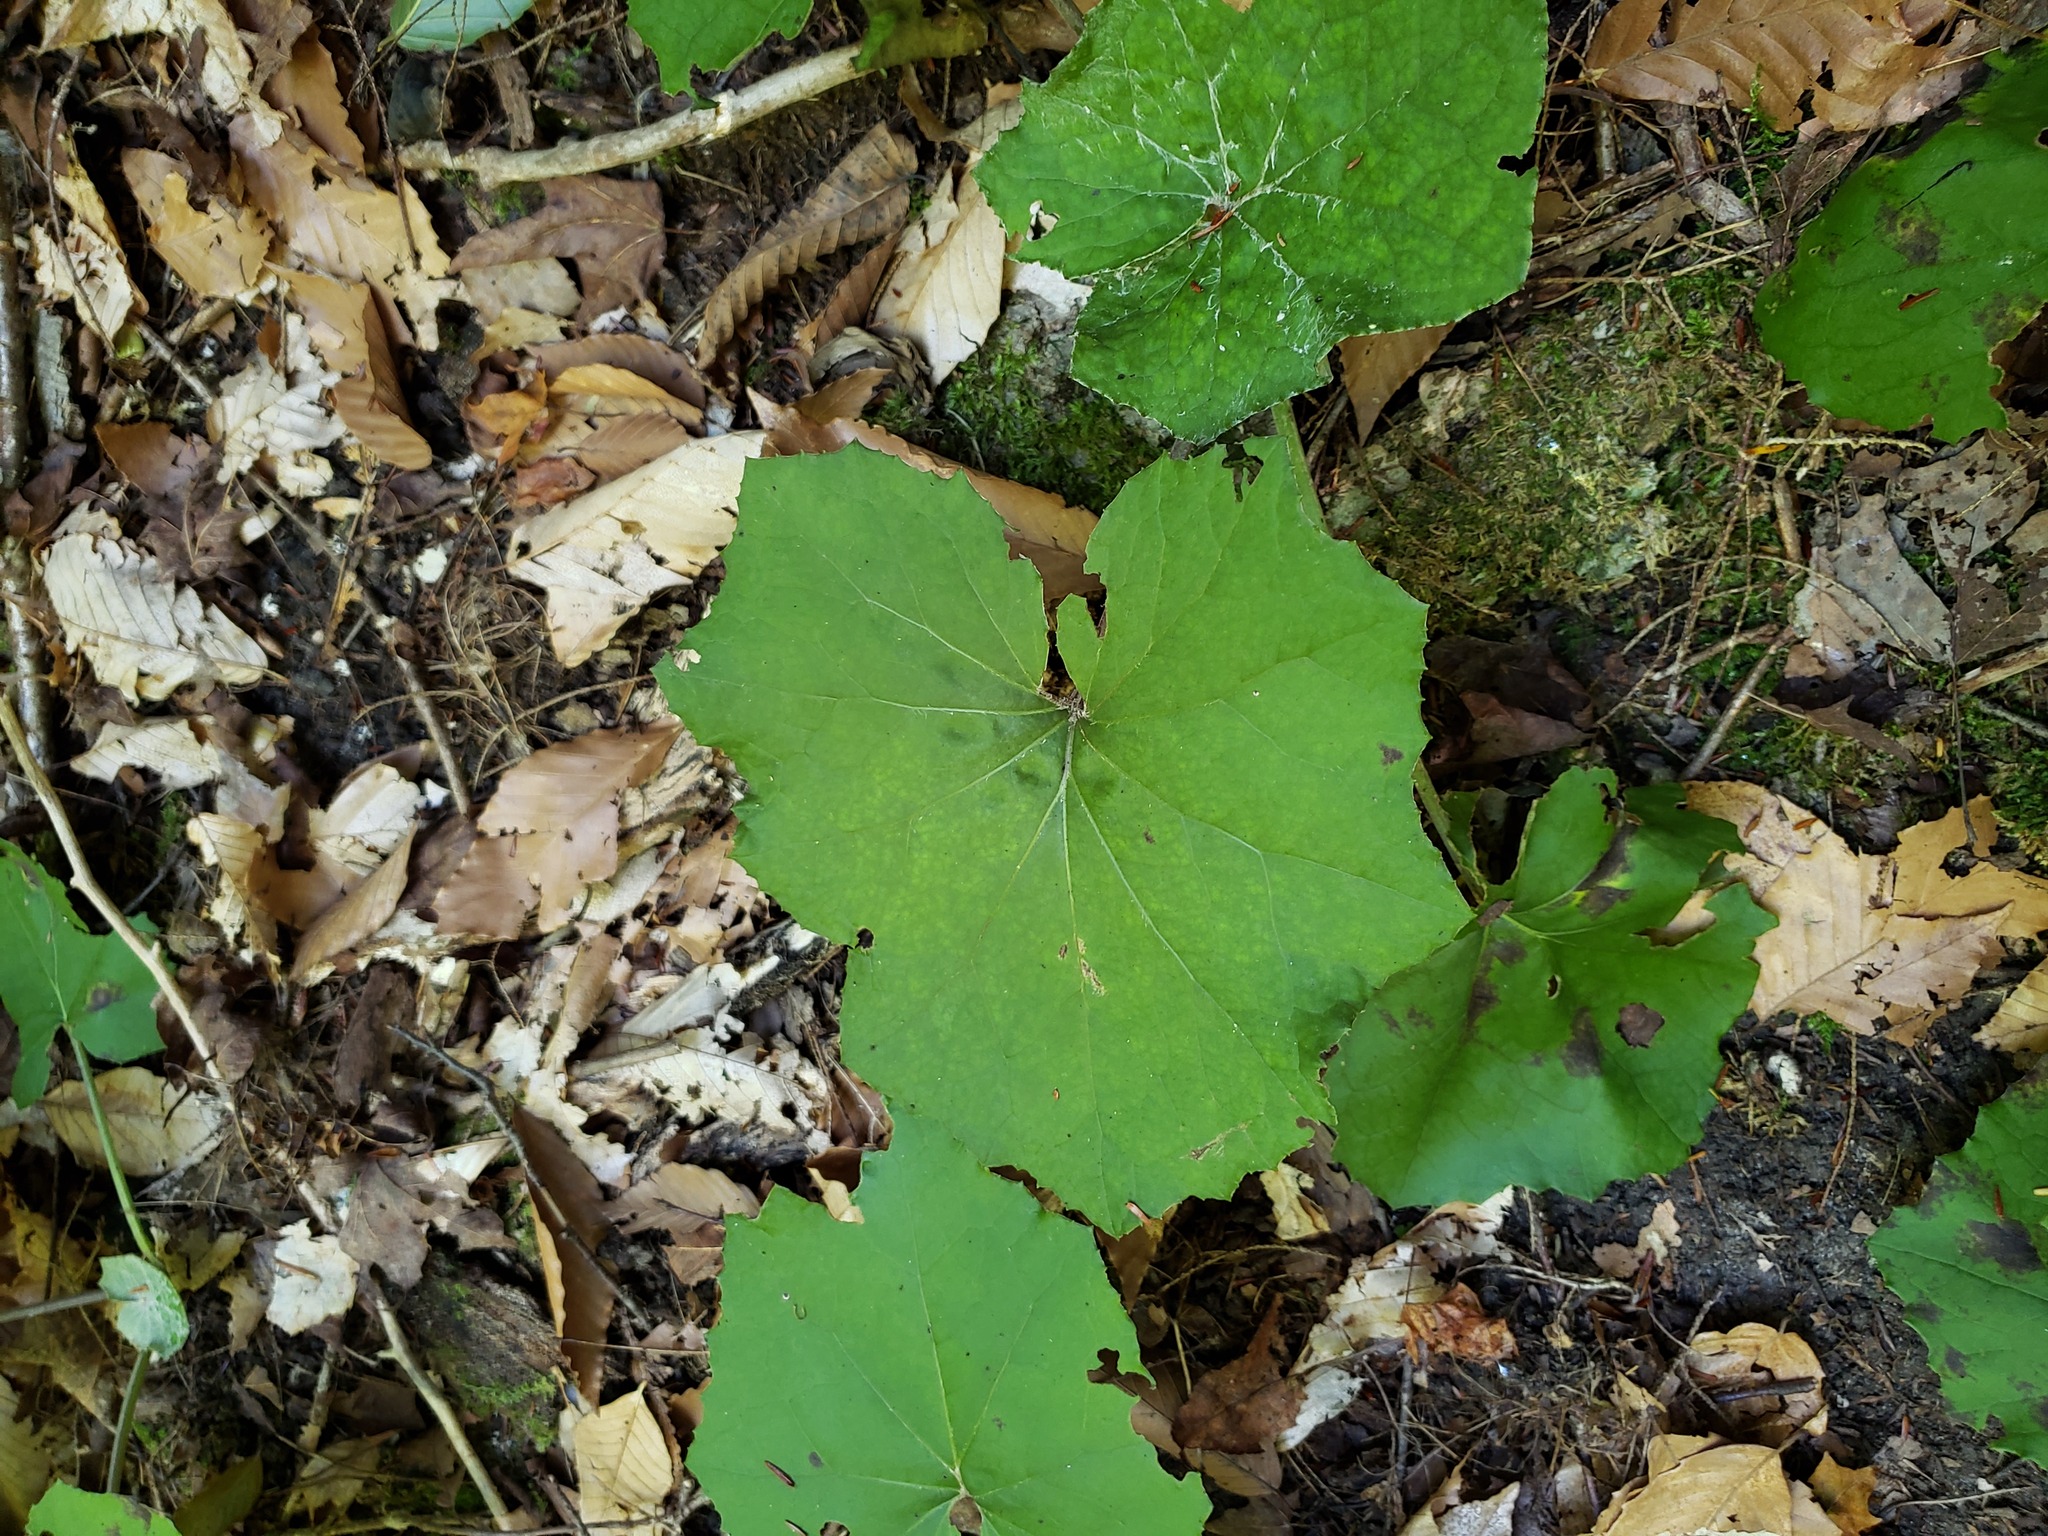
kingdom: Plantae
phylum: Tracheophyta
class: Magnoliopsida
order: Asterales
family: Asteraceae
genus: Tussilago
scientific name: Tussilago farfara
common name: Coltsfoot
